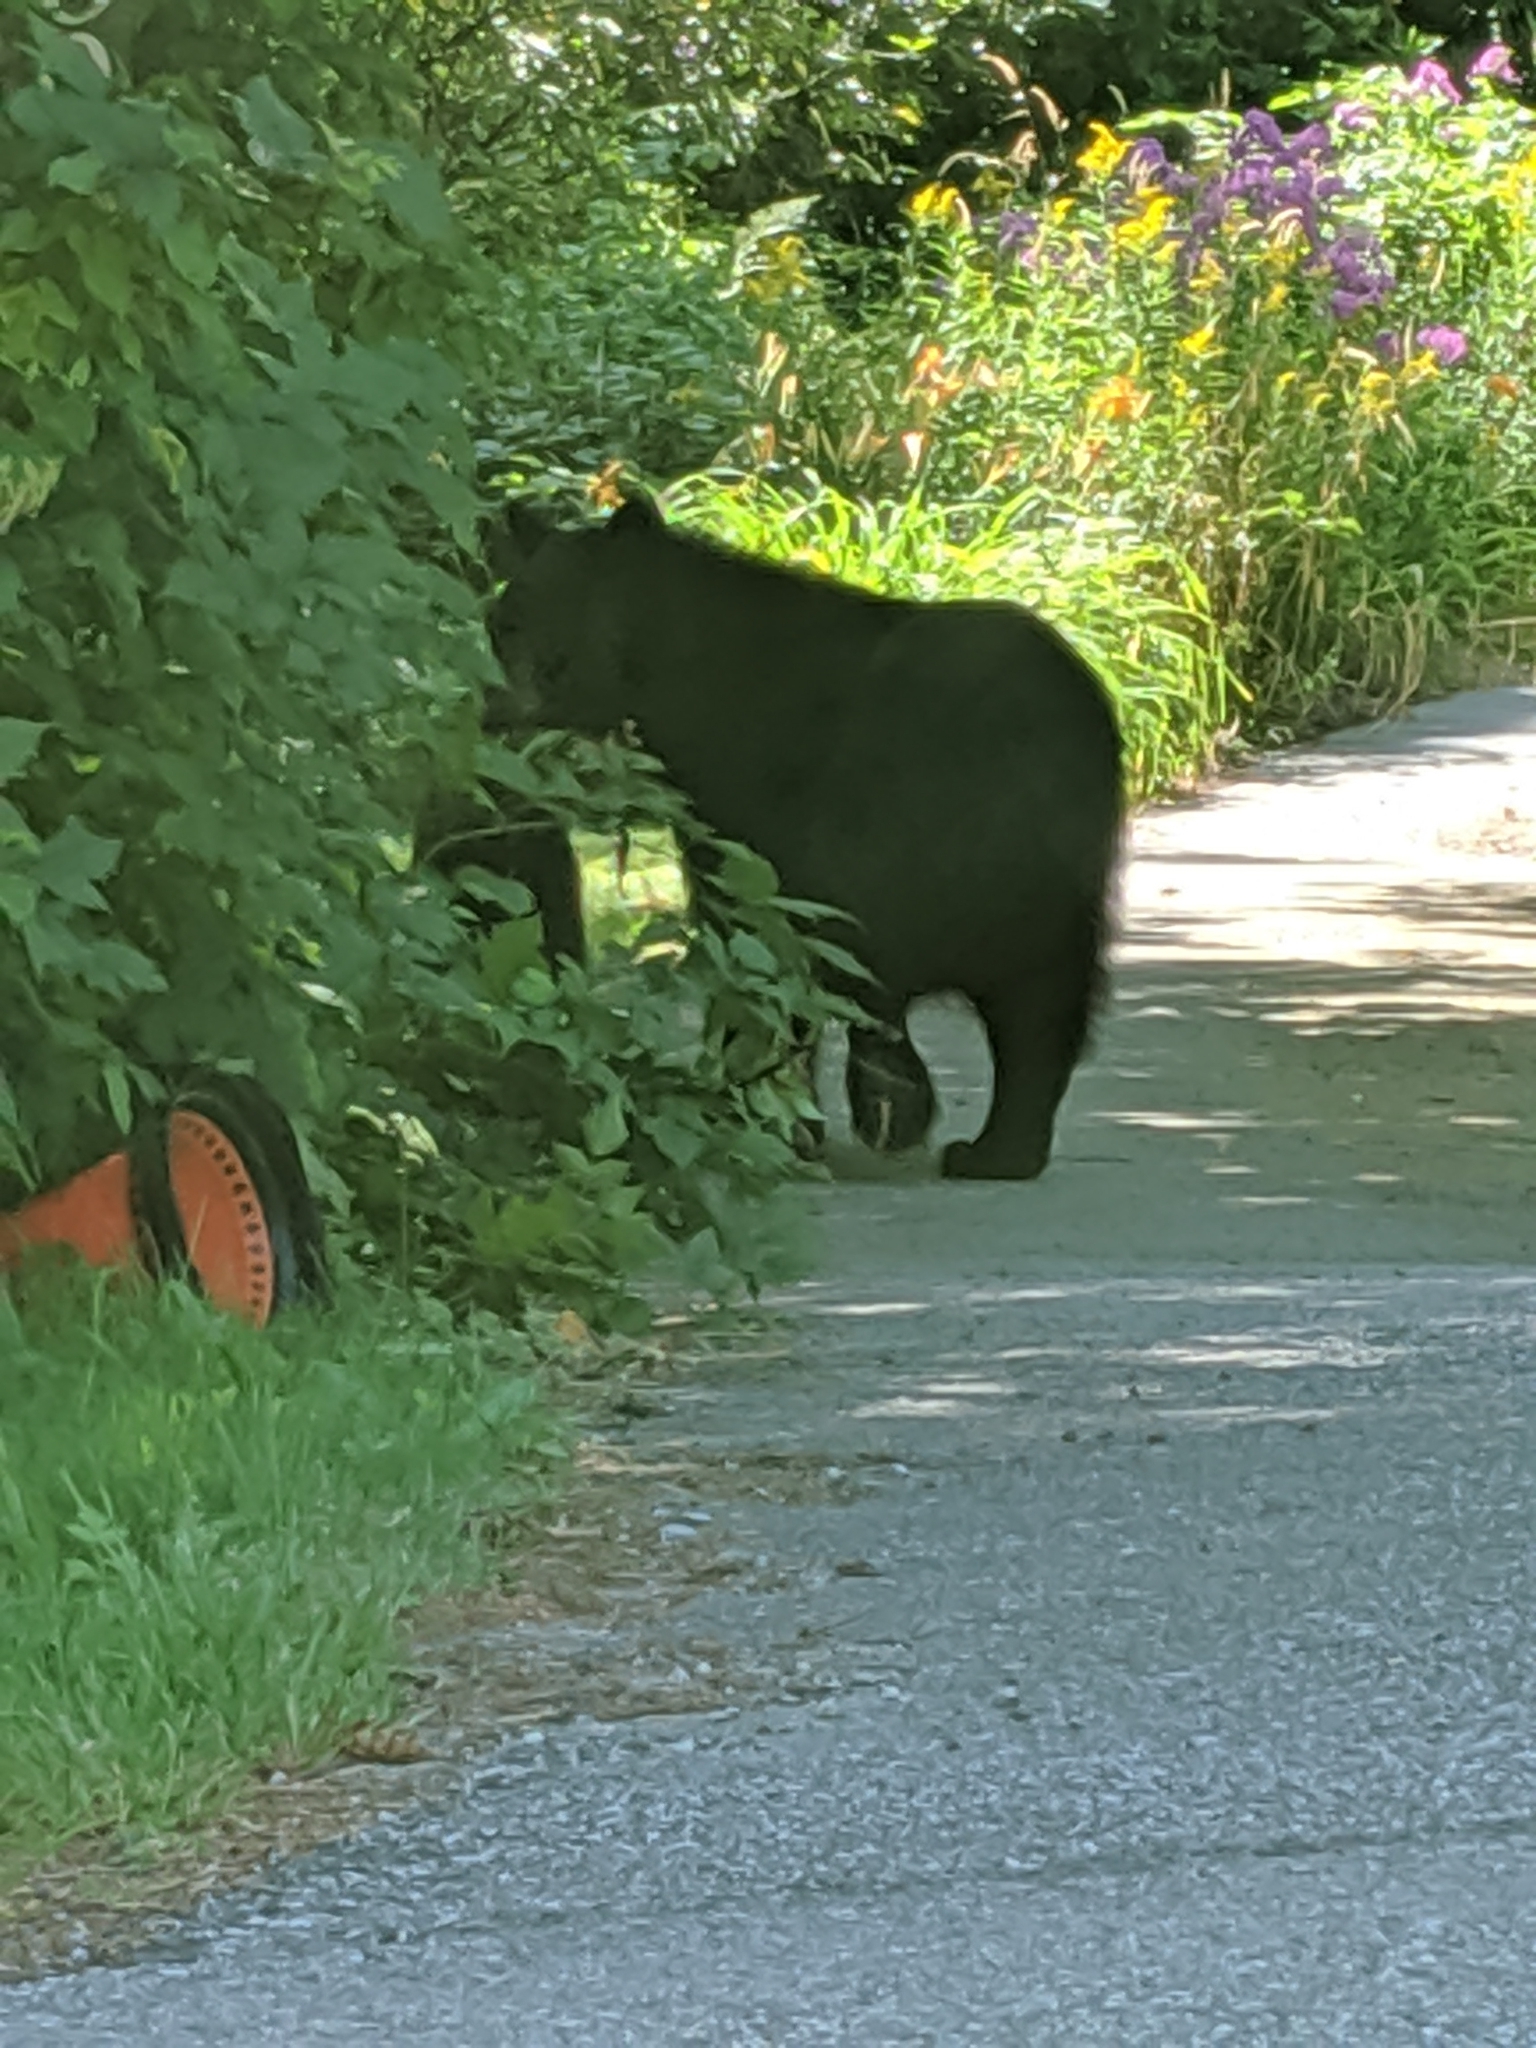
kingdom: Animalia
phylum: Chordata
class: Mammalia
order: Carnivora
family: Ursidae
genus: Ursus
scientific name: Ursus americanus
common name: American black bear
